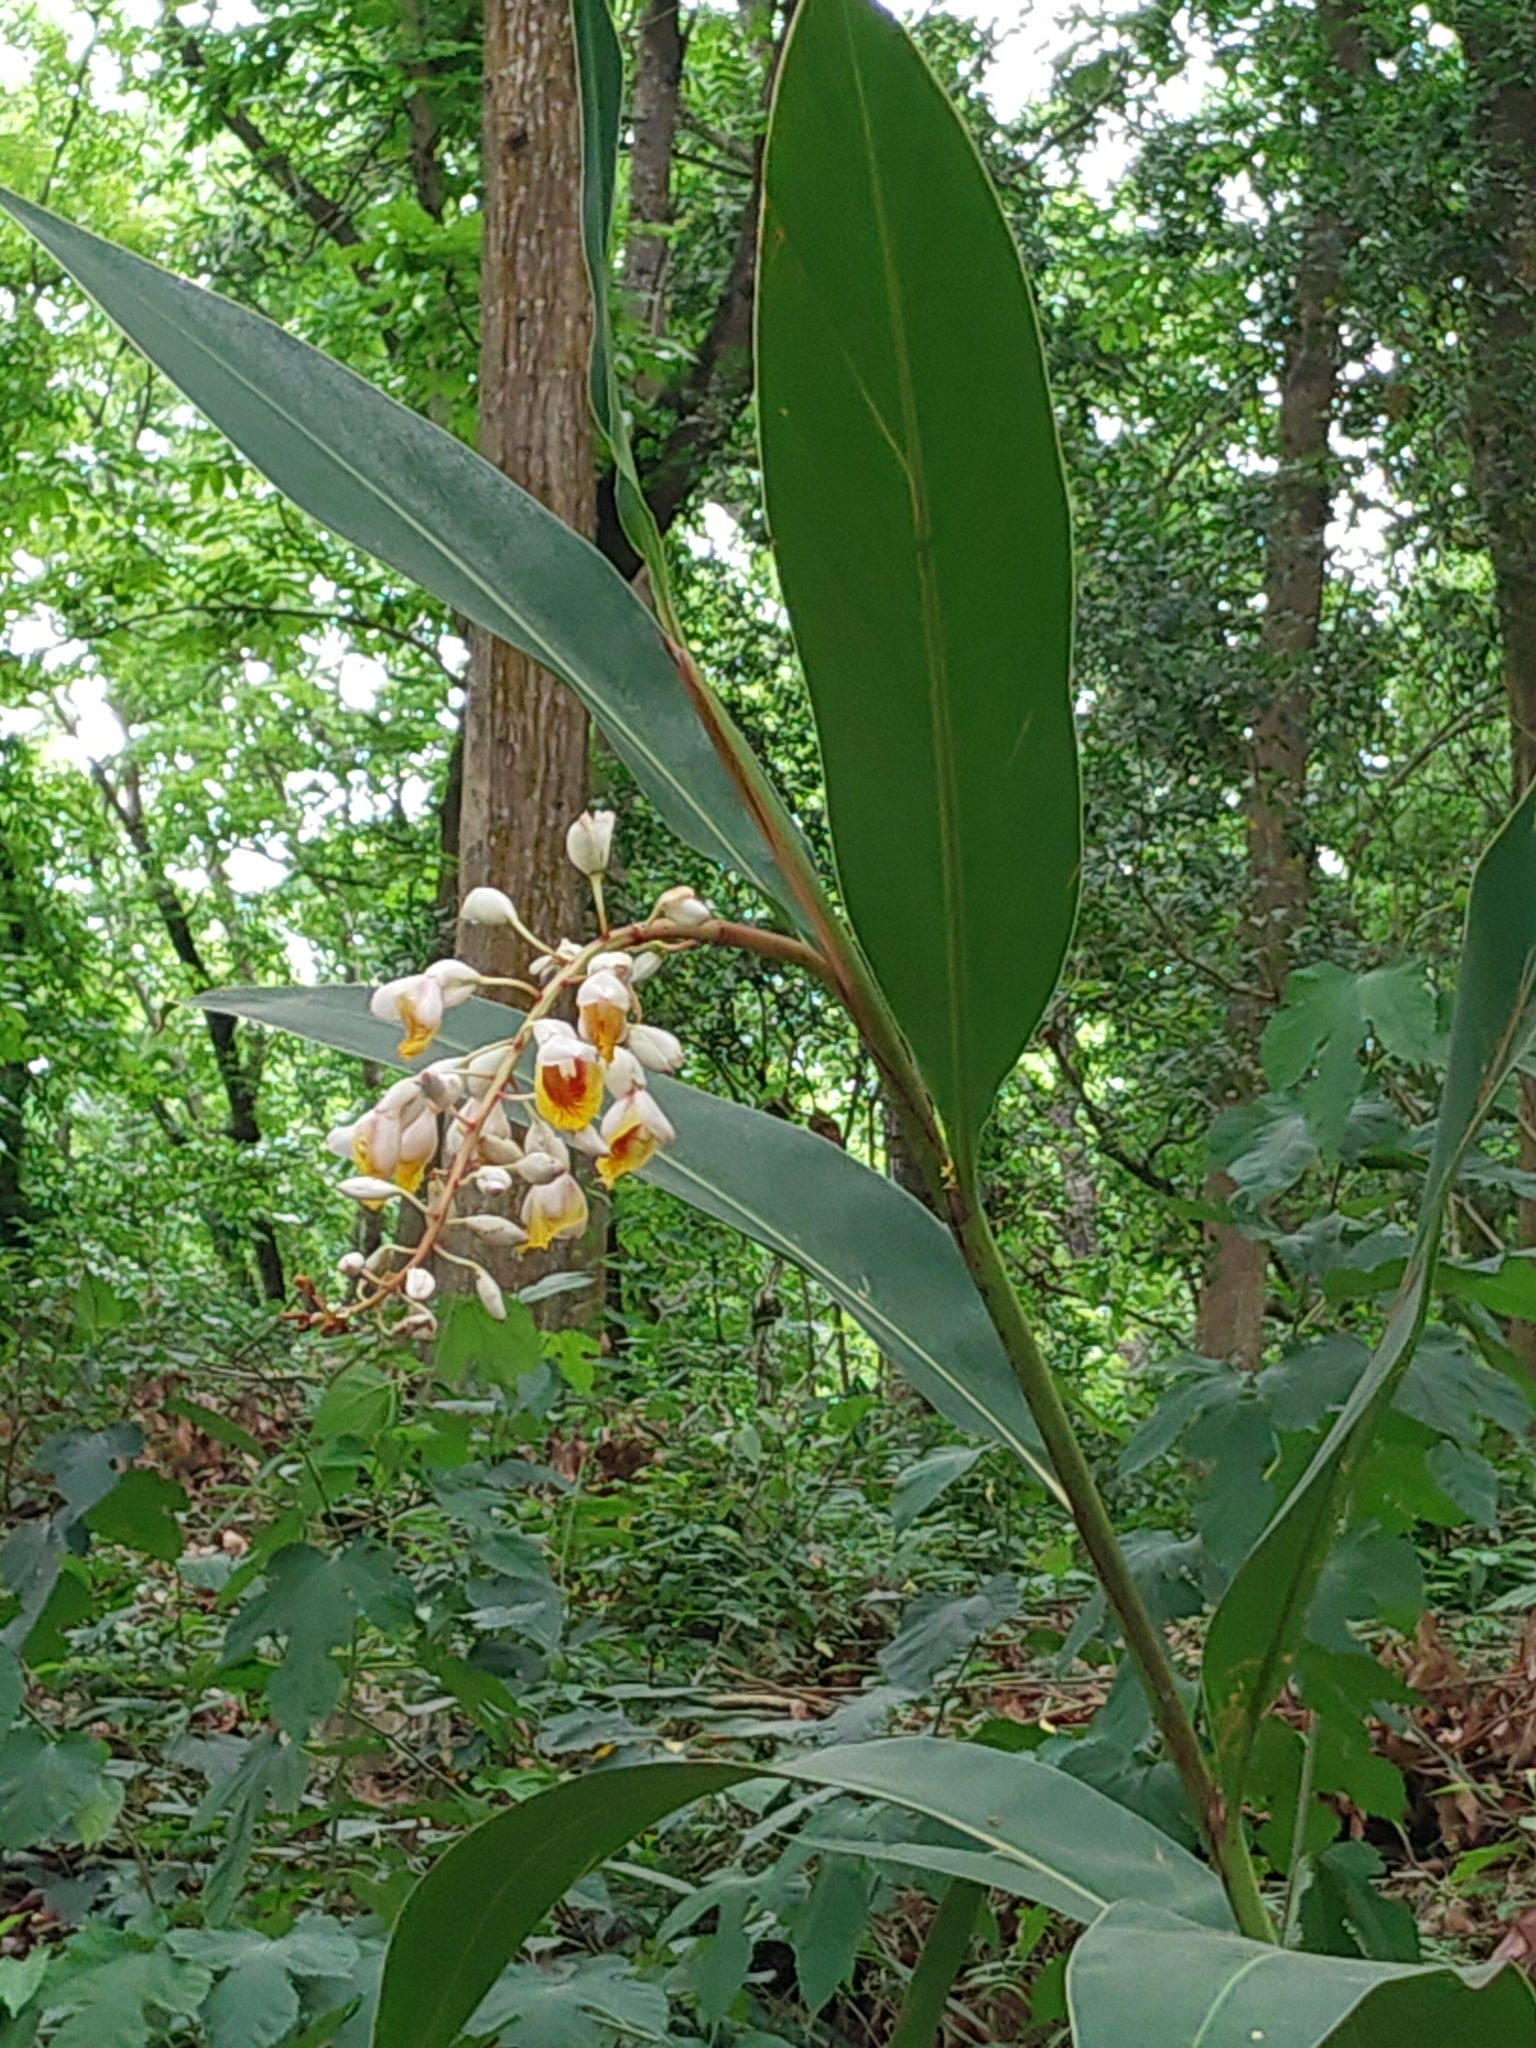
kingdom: Plantae
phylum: Tracheophyta
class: Liliopsida
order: Zingiberales
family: Zingiberaceae
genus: Alpinia
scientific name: Alpinia zerumbet
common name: Shellplant
